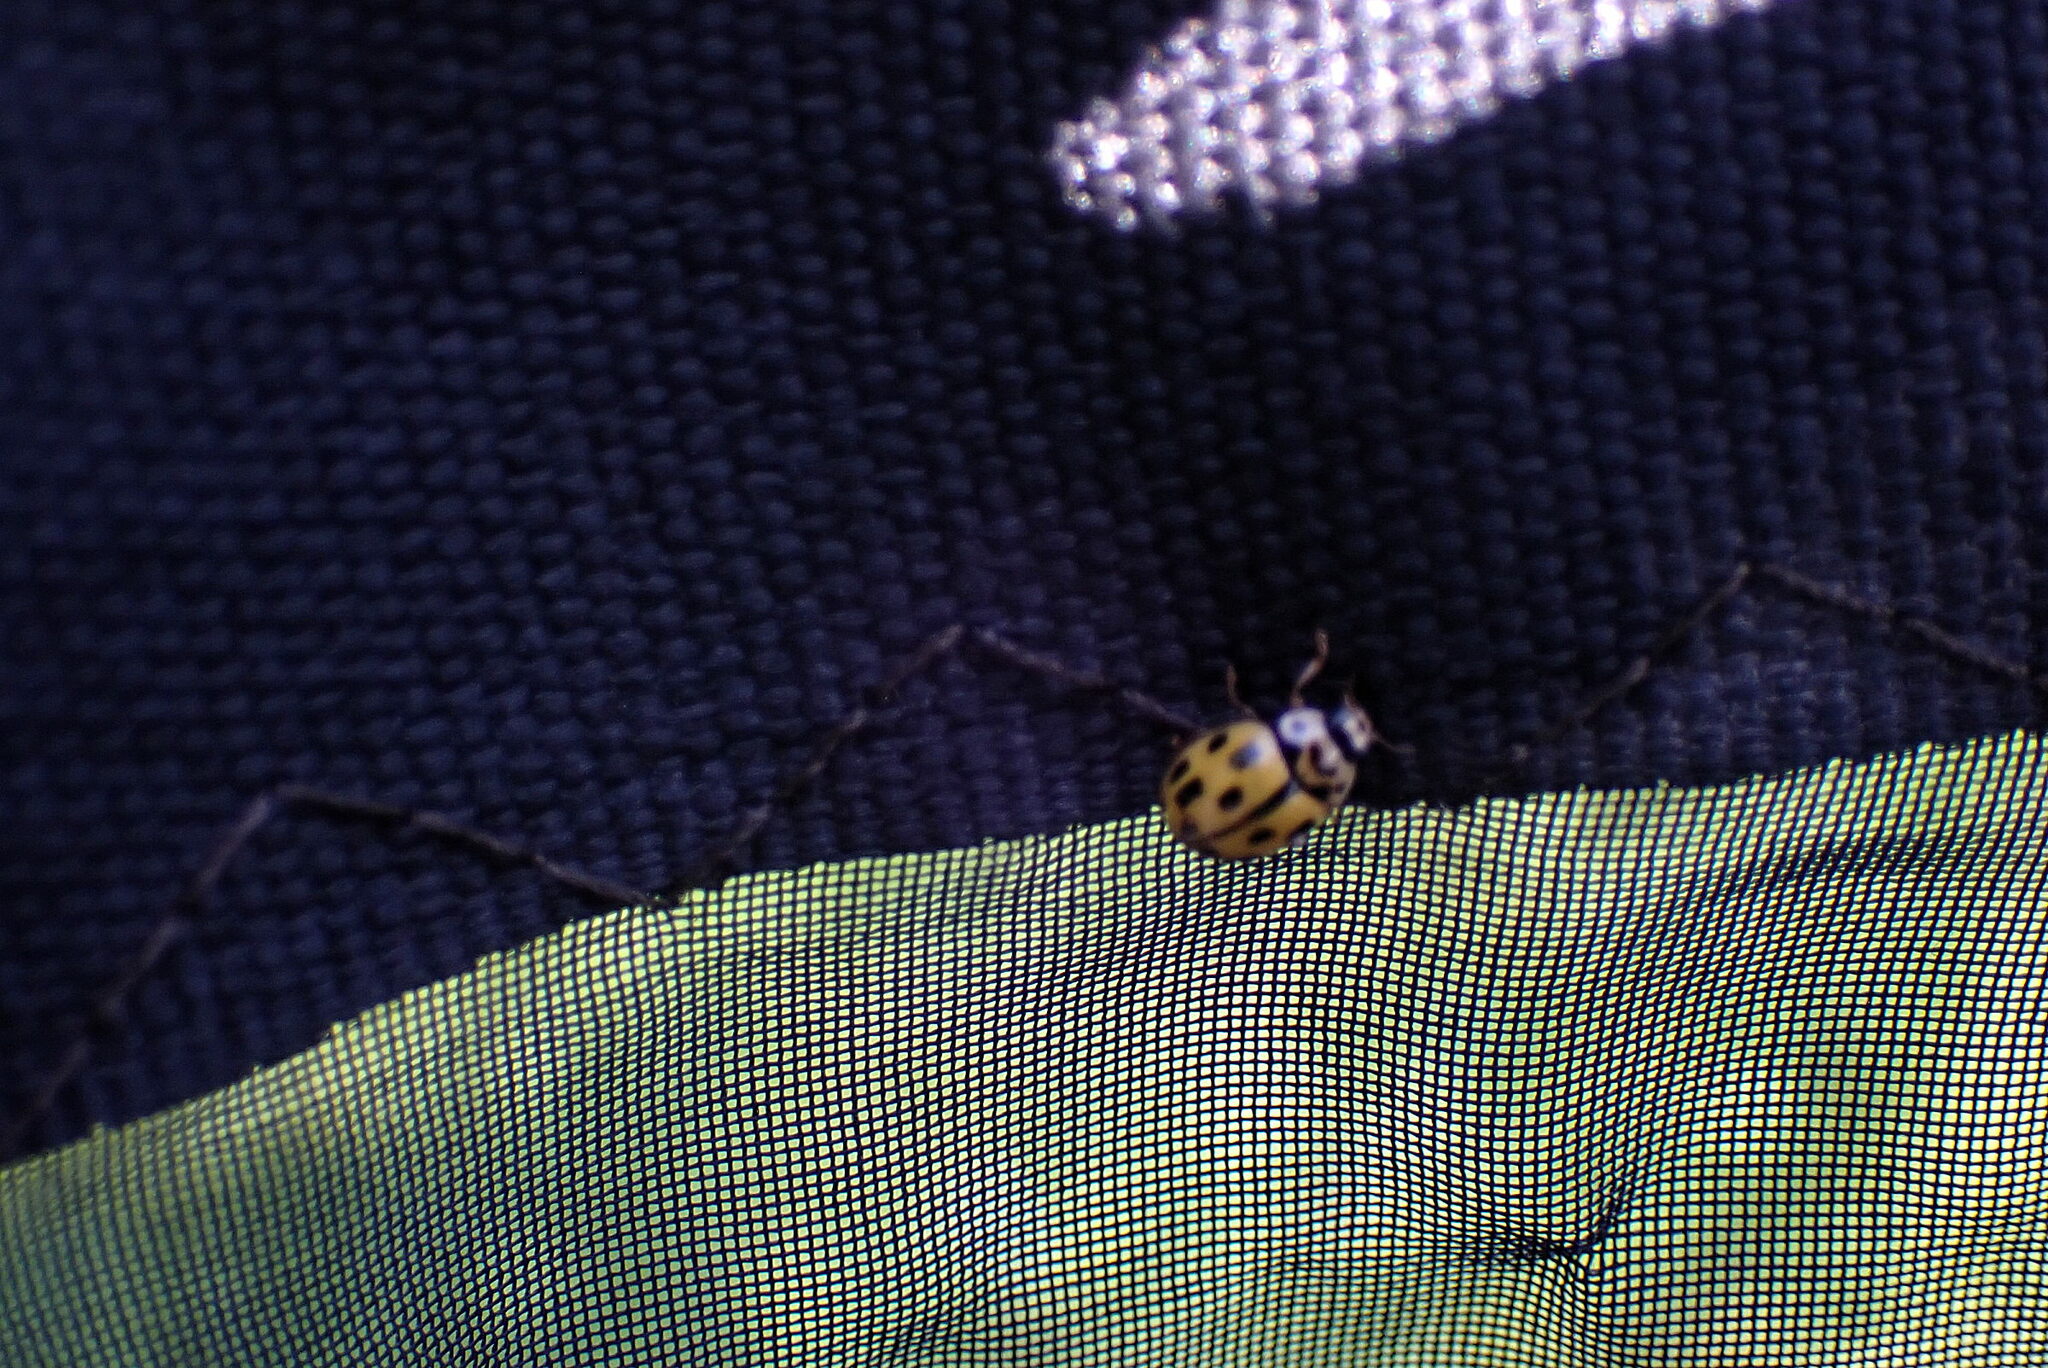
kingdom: Animalia
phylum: Arthropoda
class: Insecta
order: Coleoptera
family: Coccinellidae
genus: Propylaea
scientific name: Propylaea quatuordecimpunctata
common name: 14-spotted ladybird beetle
